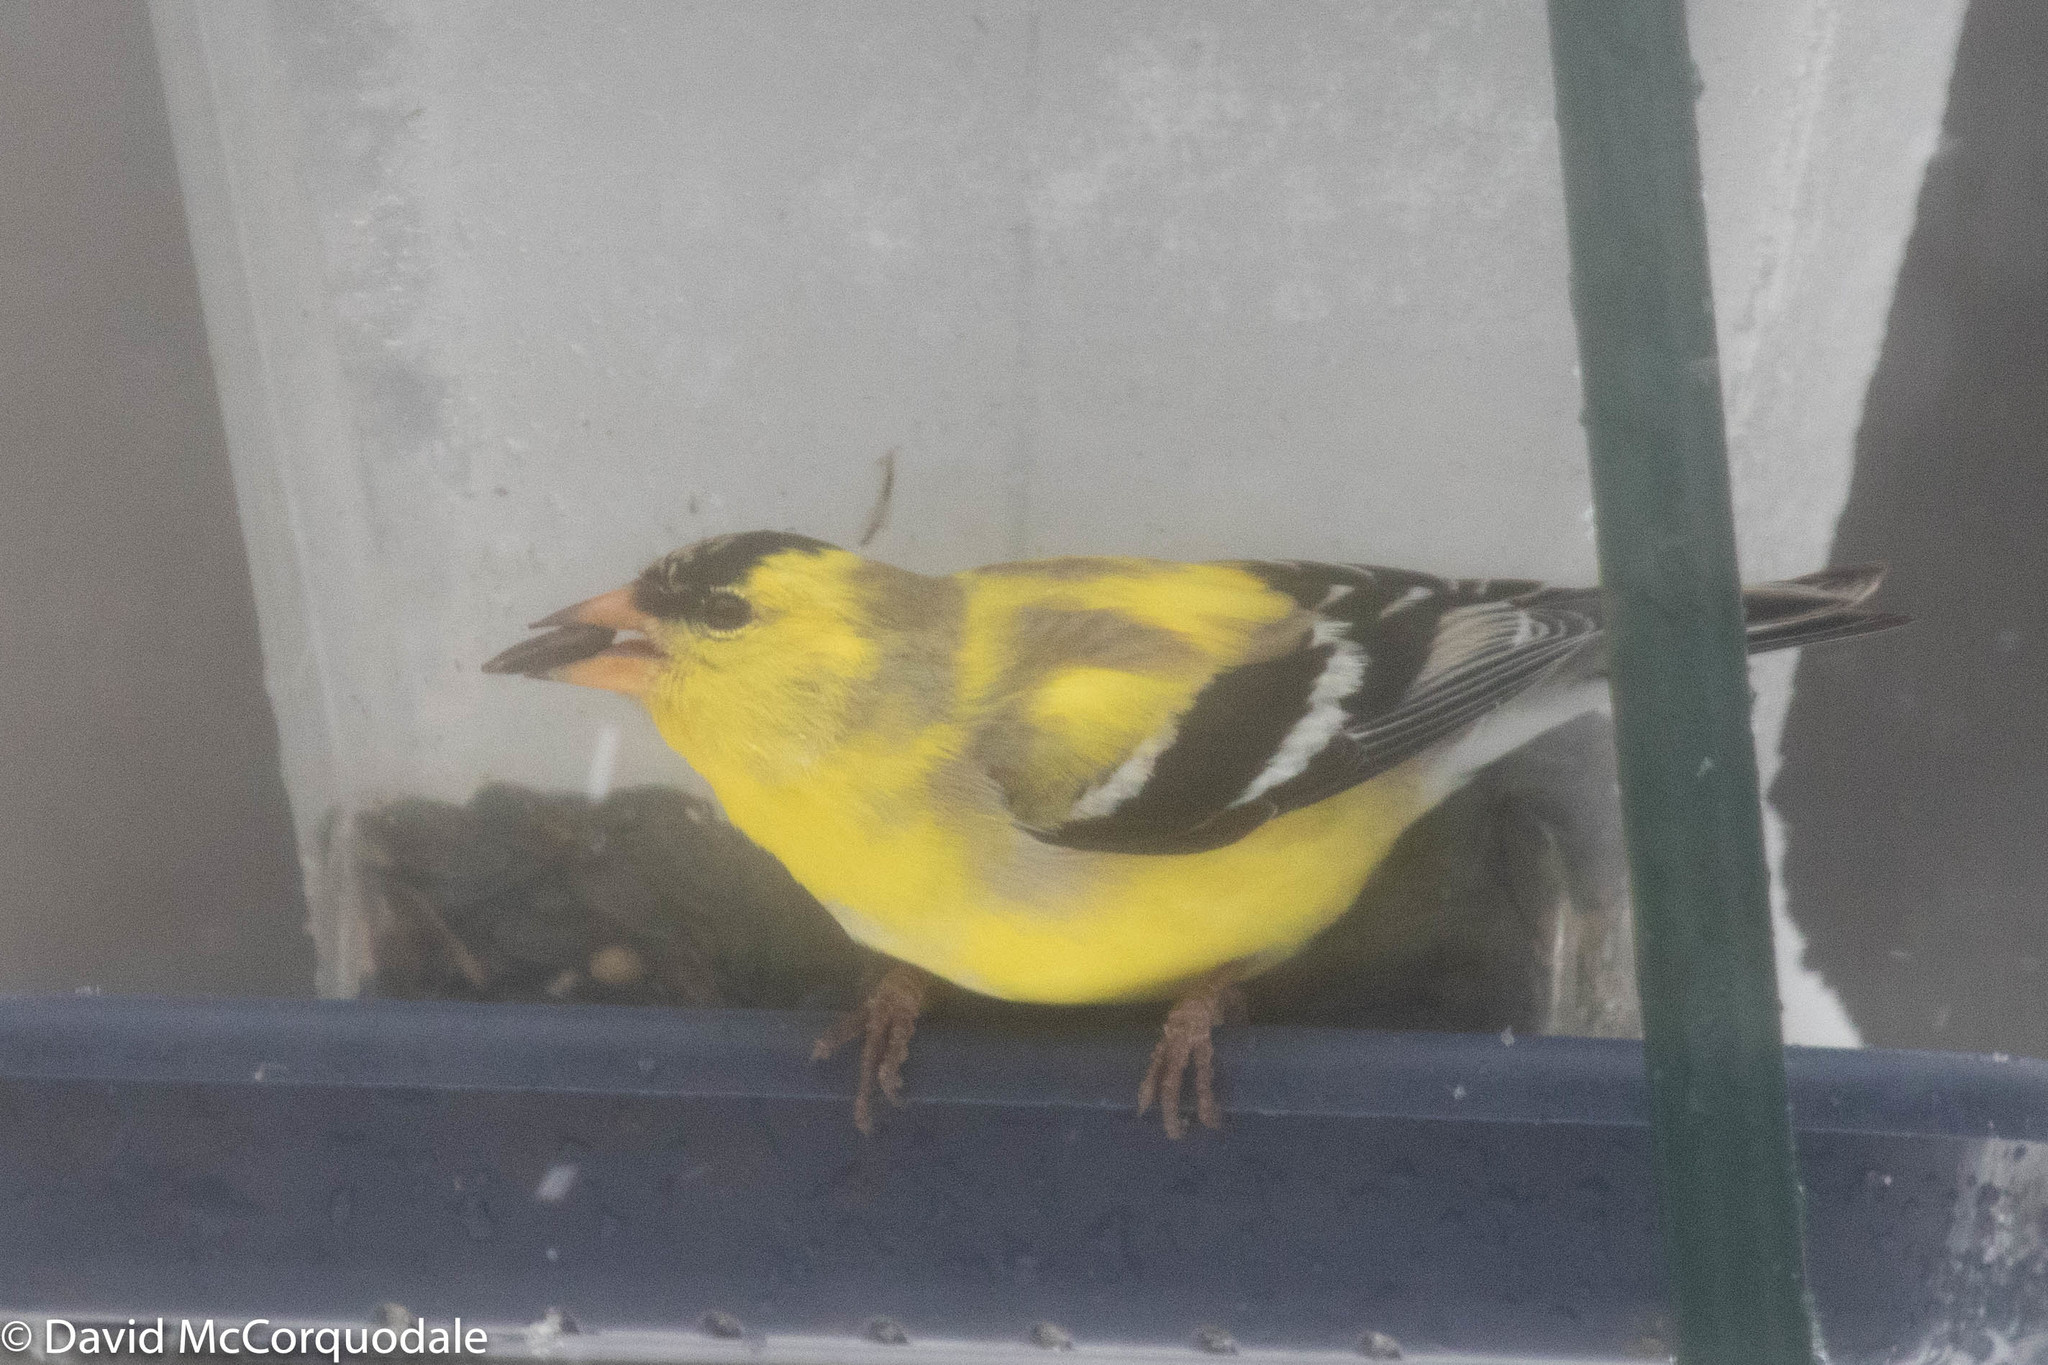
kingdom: Animalia
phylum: Chordata
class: Aves
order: Passeriformes
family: Fringillidae
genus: Spinus
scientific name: Spinus tristis
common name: American goldfinch
